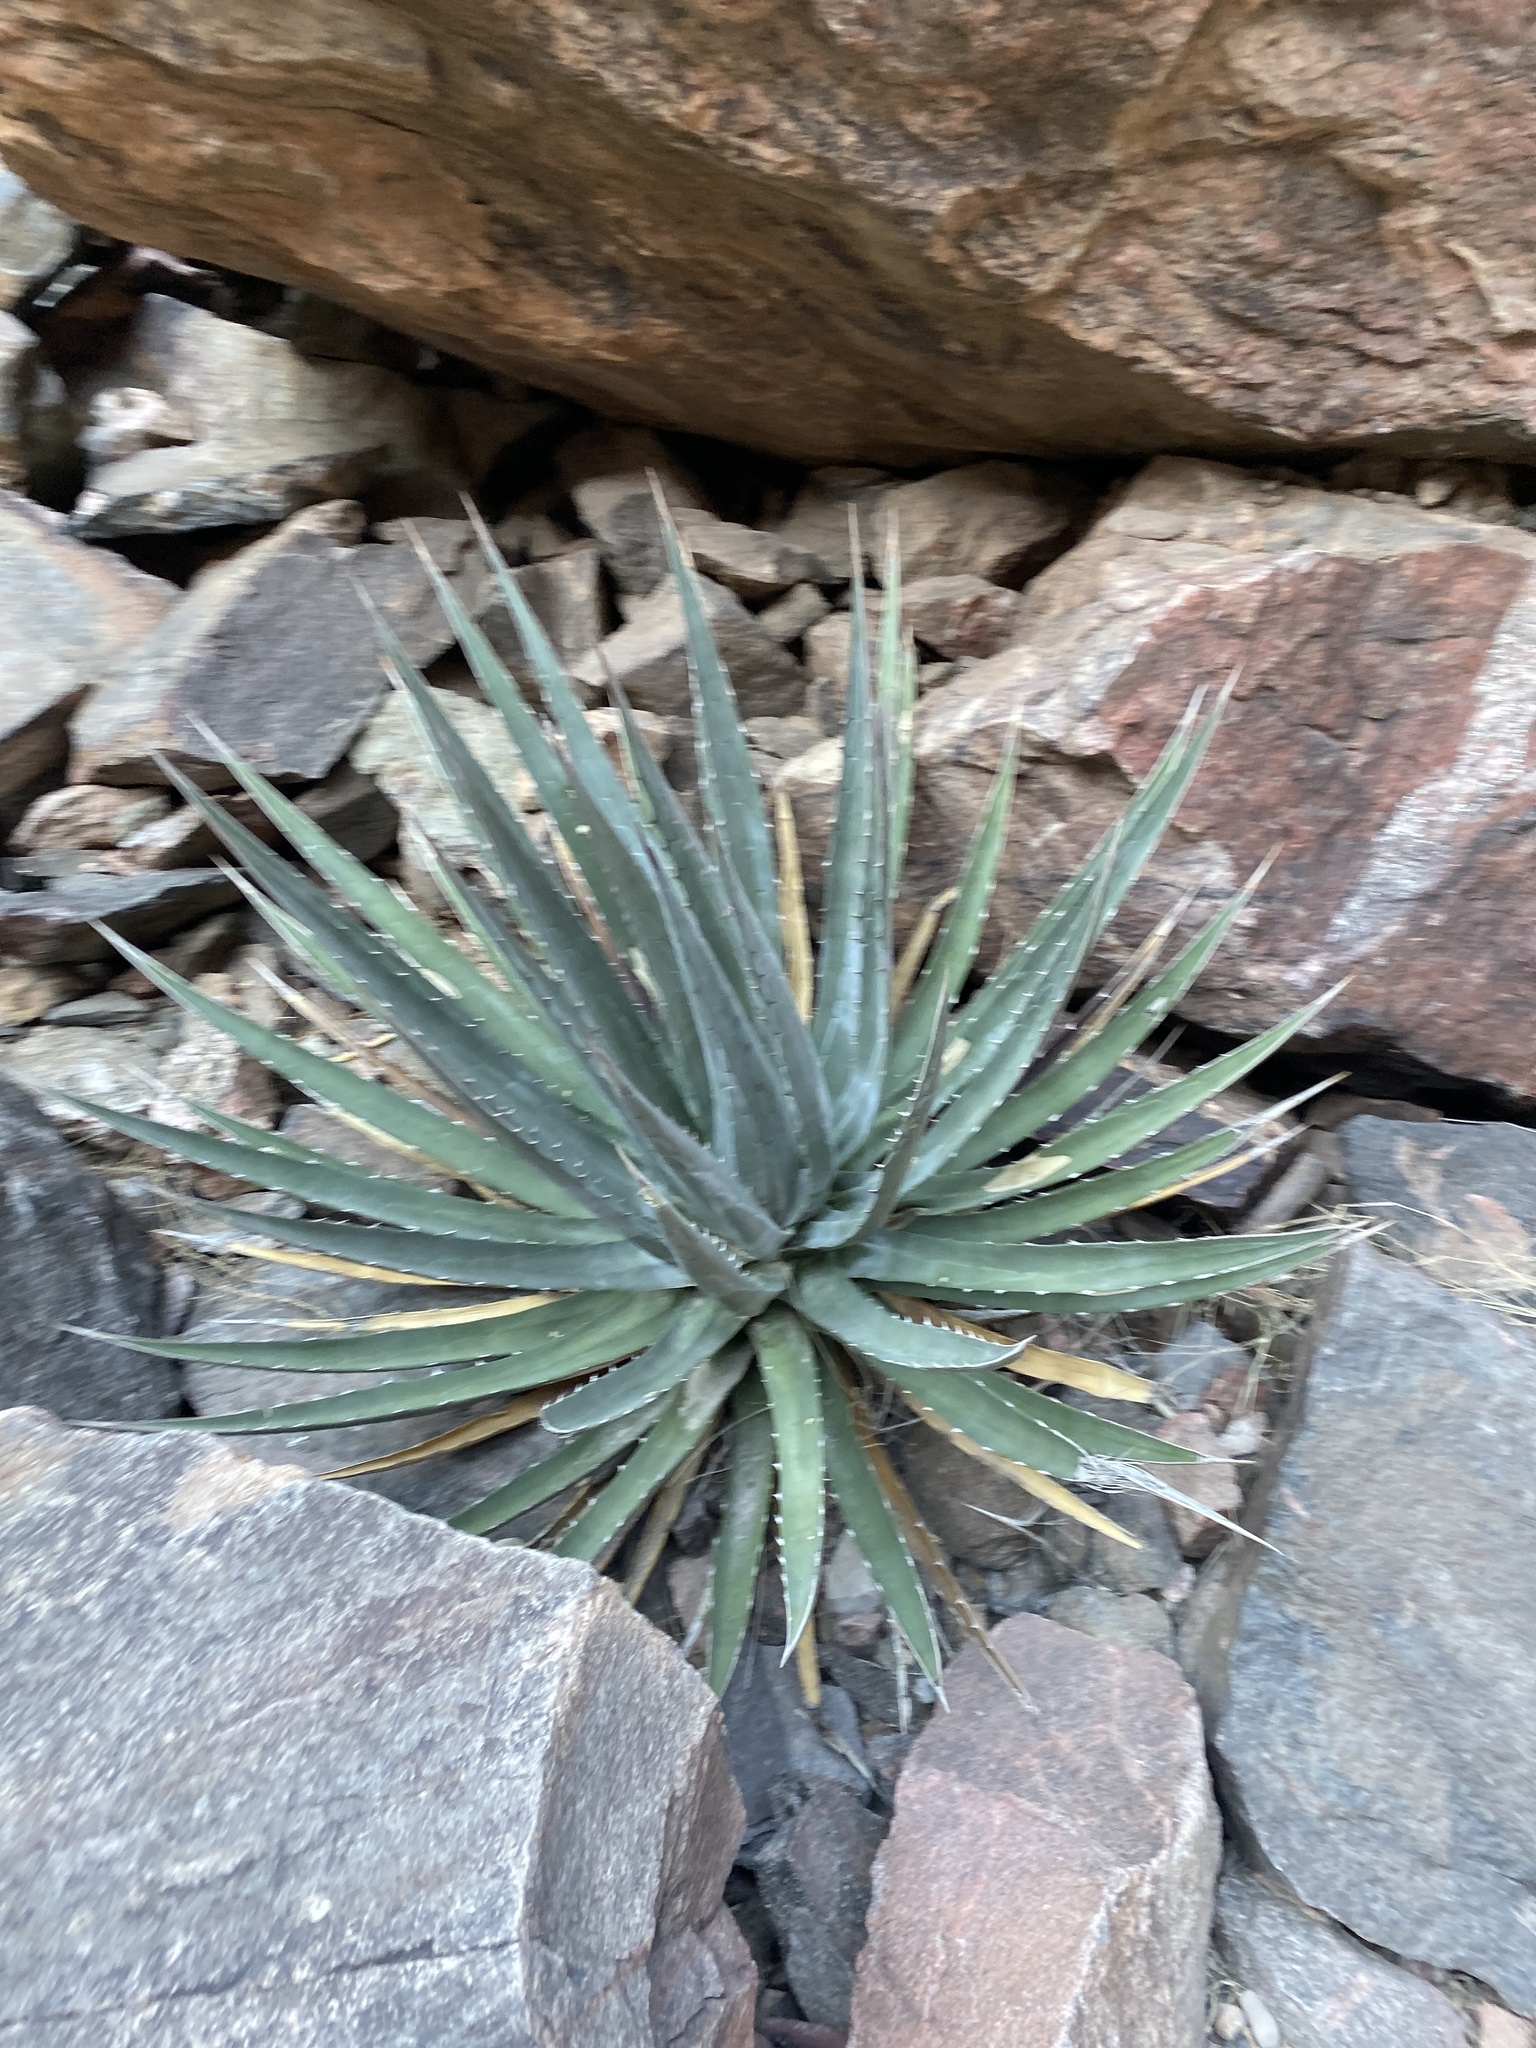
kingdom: Plantae
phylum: Tracheophyta
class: Liliopsida
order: Asparagales
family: Asparagaceae
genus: Agave
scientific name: Agave utahensis
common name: Utah agave
